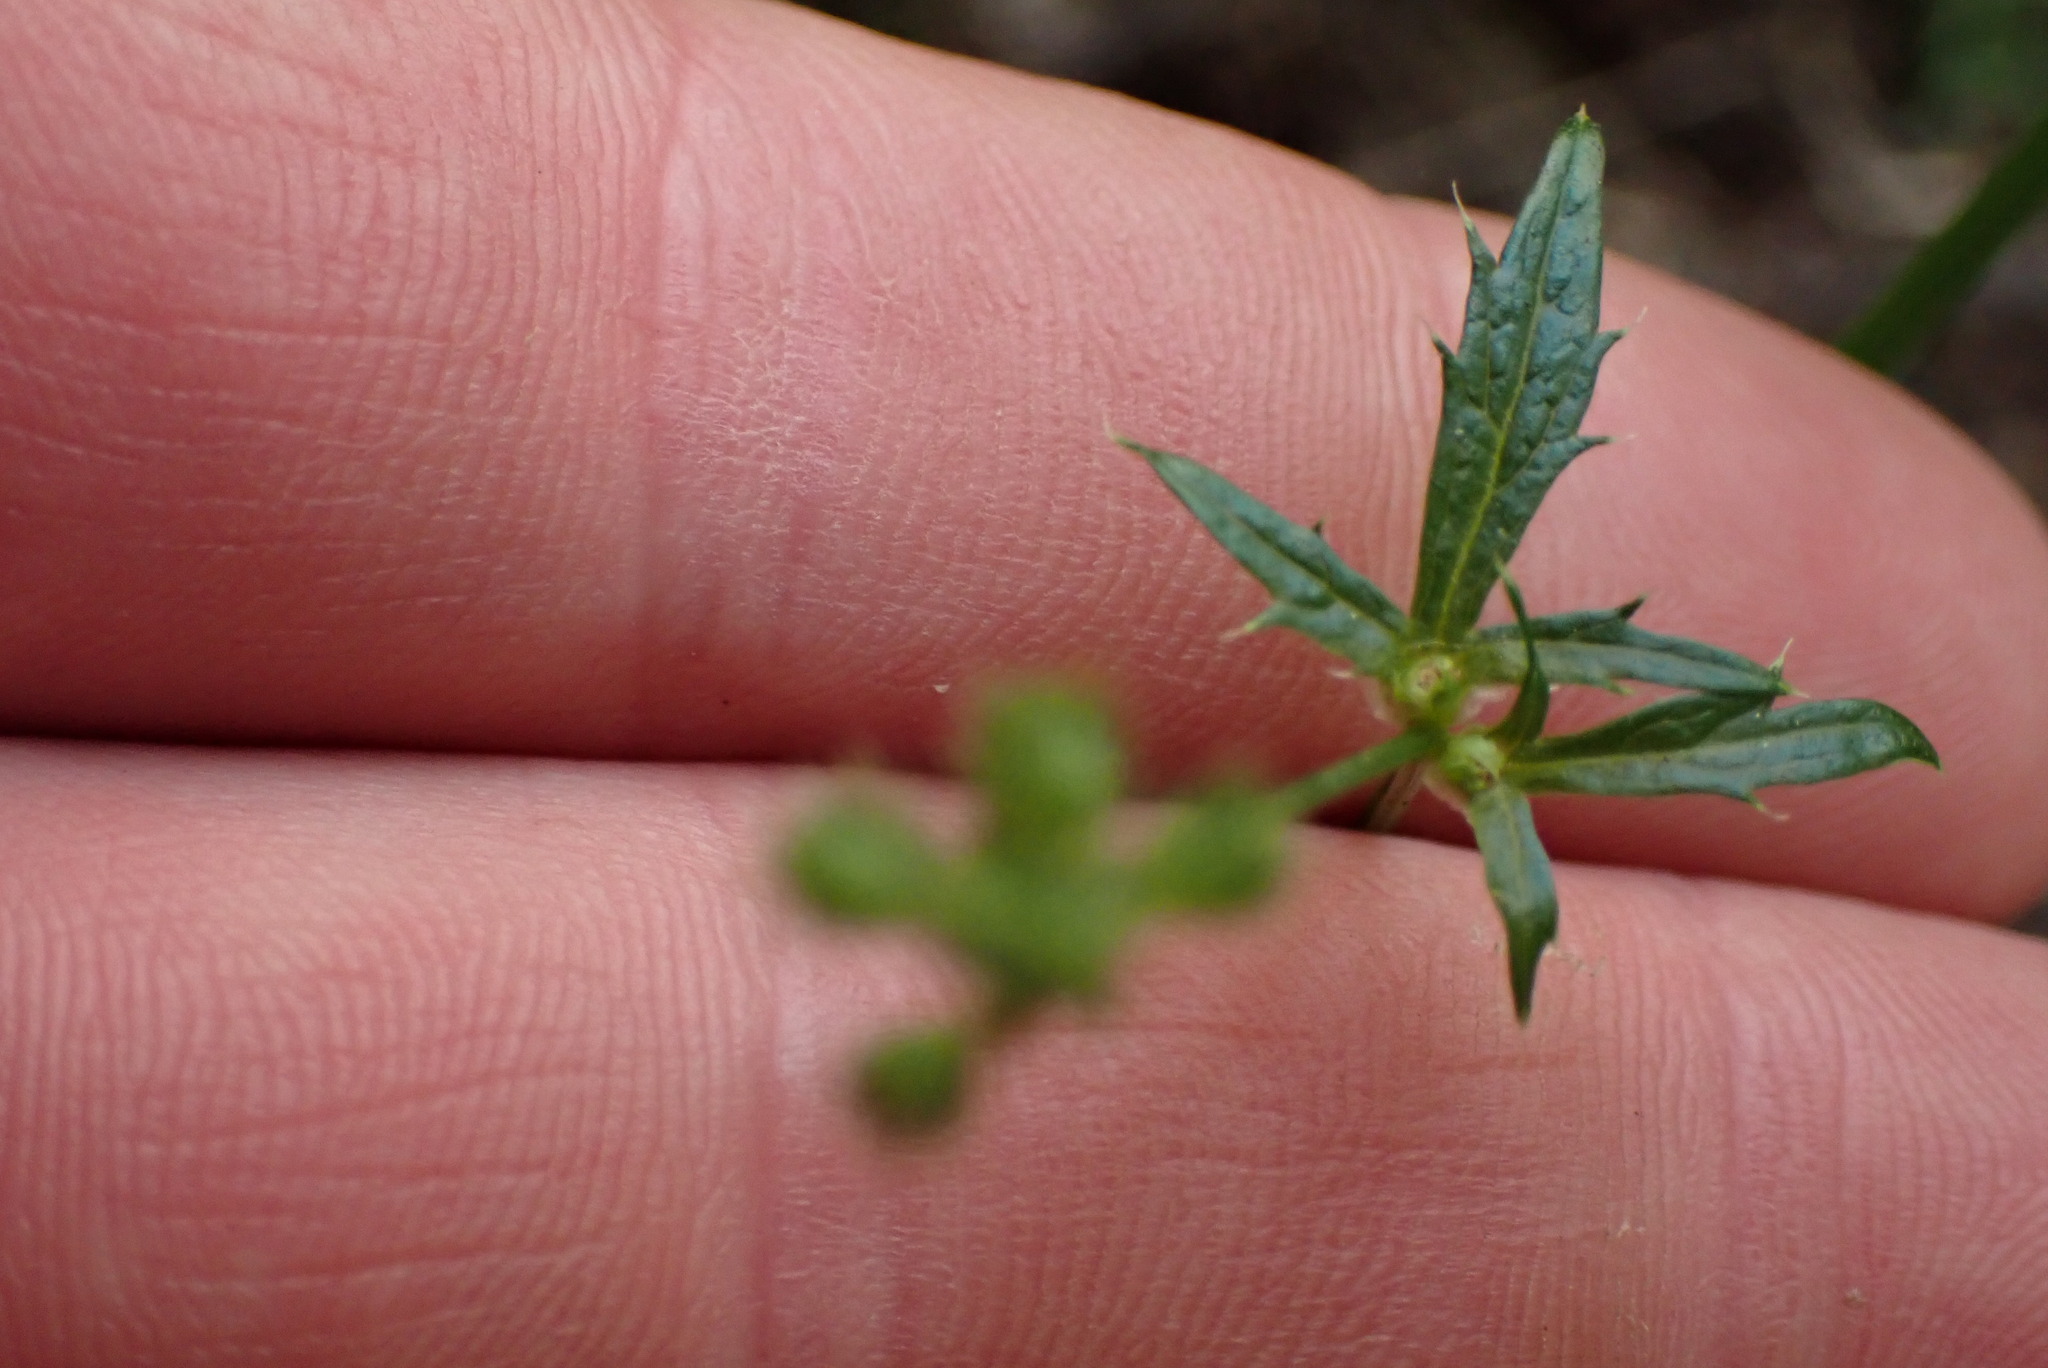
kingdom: Plantae
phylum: Tracheophyta
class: Magnoliopsida
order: Apiales
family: Apiaceae
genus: Sanicula
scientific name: Sanicula crassicaulis
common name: Western snakeroot
